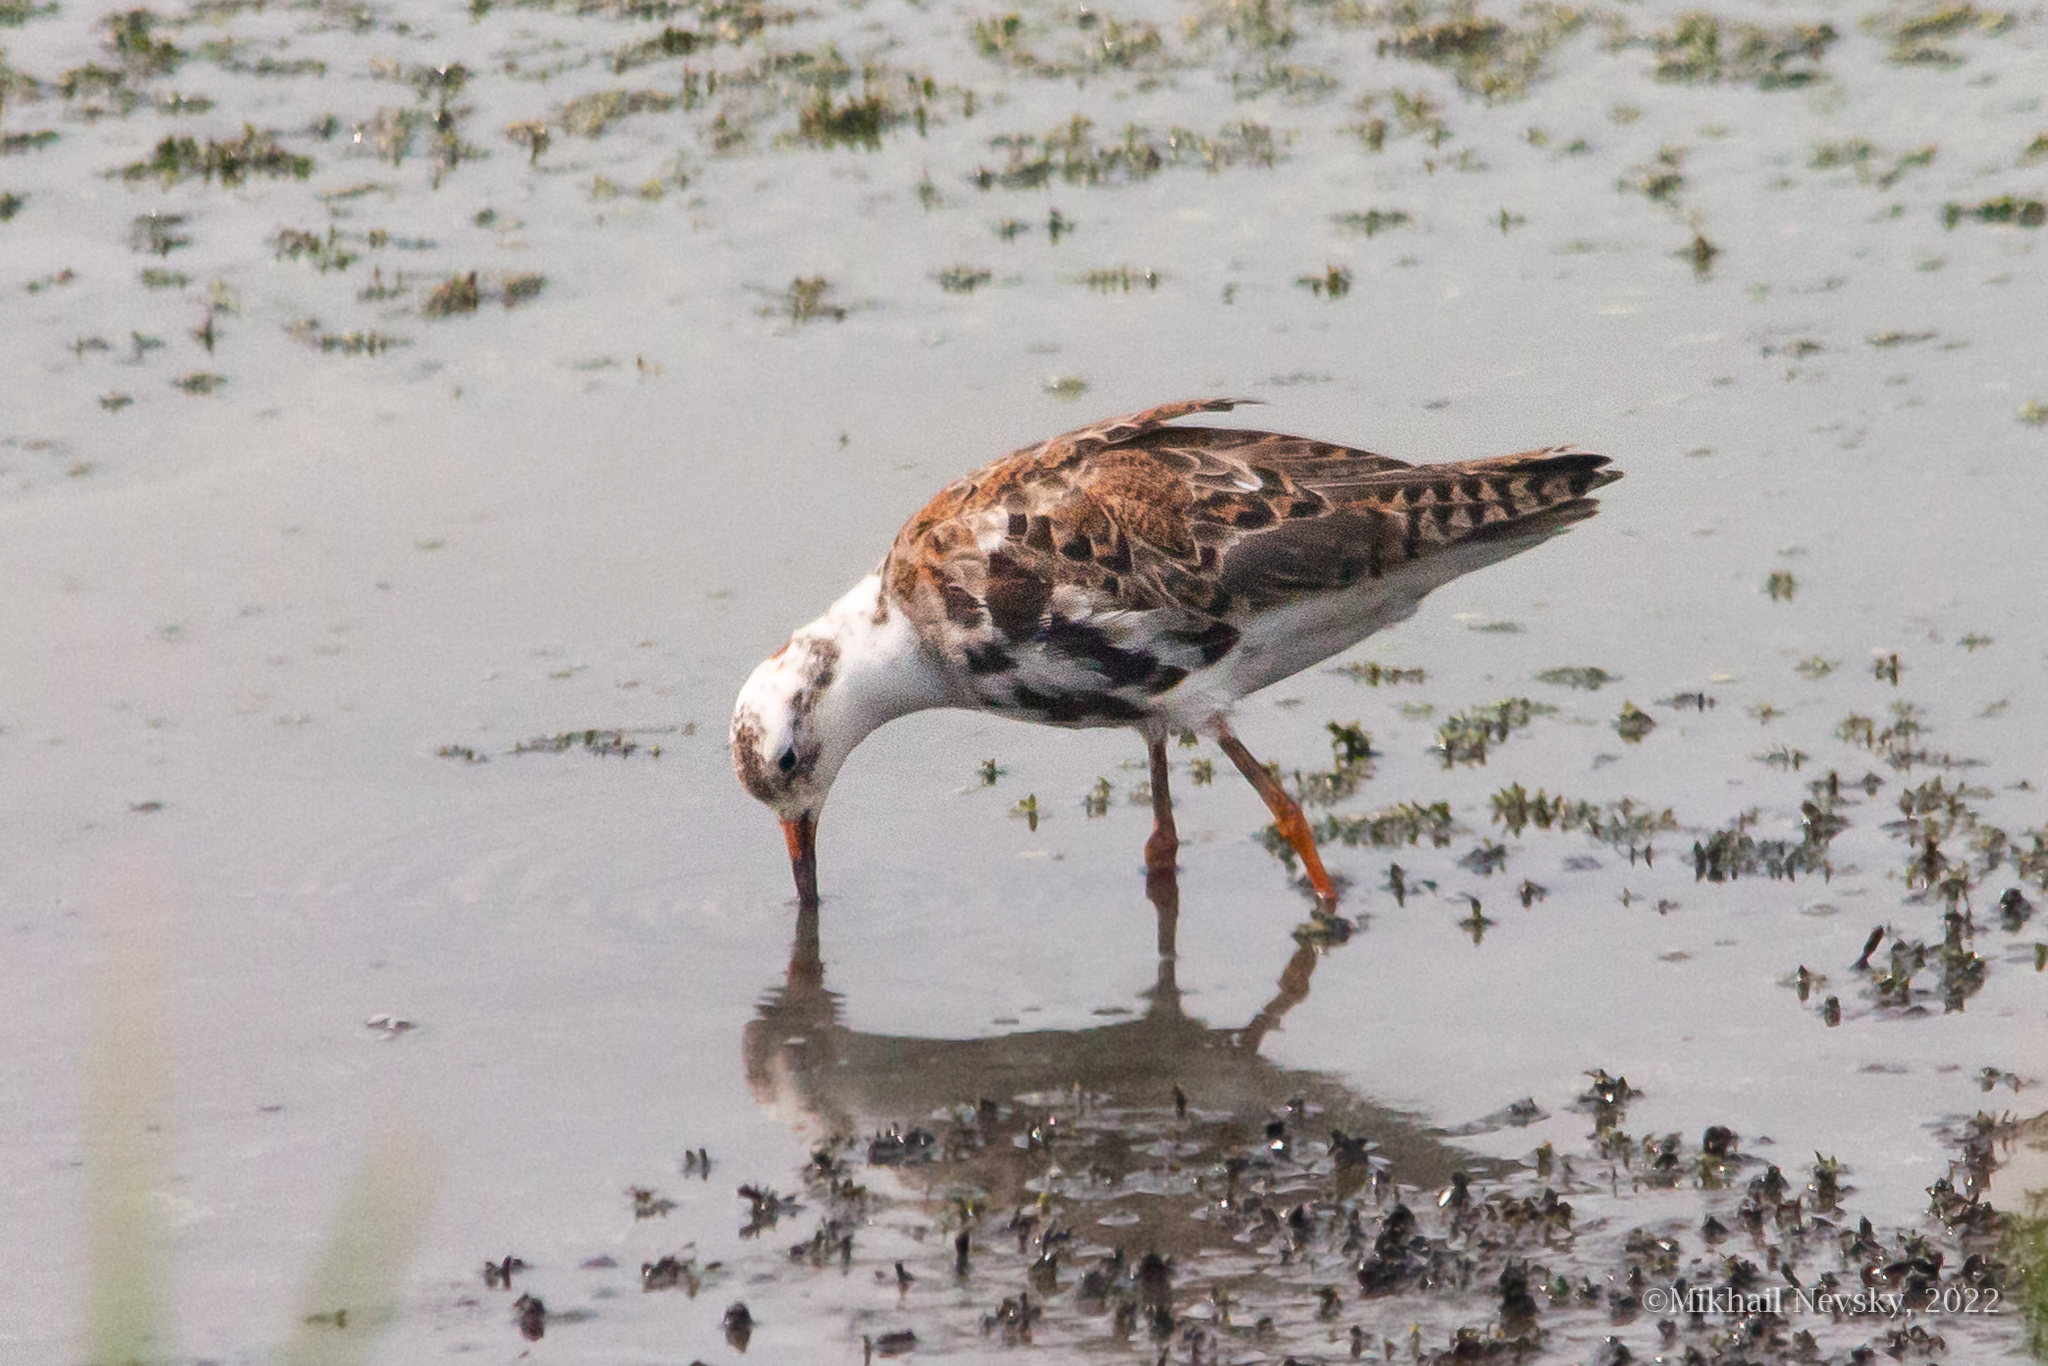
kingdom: Animalia
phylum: Chordata
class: Aves
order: Charadriiformes
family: Scolopacidae
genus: Calidris
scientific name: Calidris pugnax
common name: Ruff
